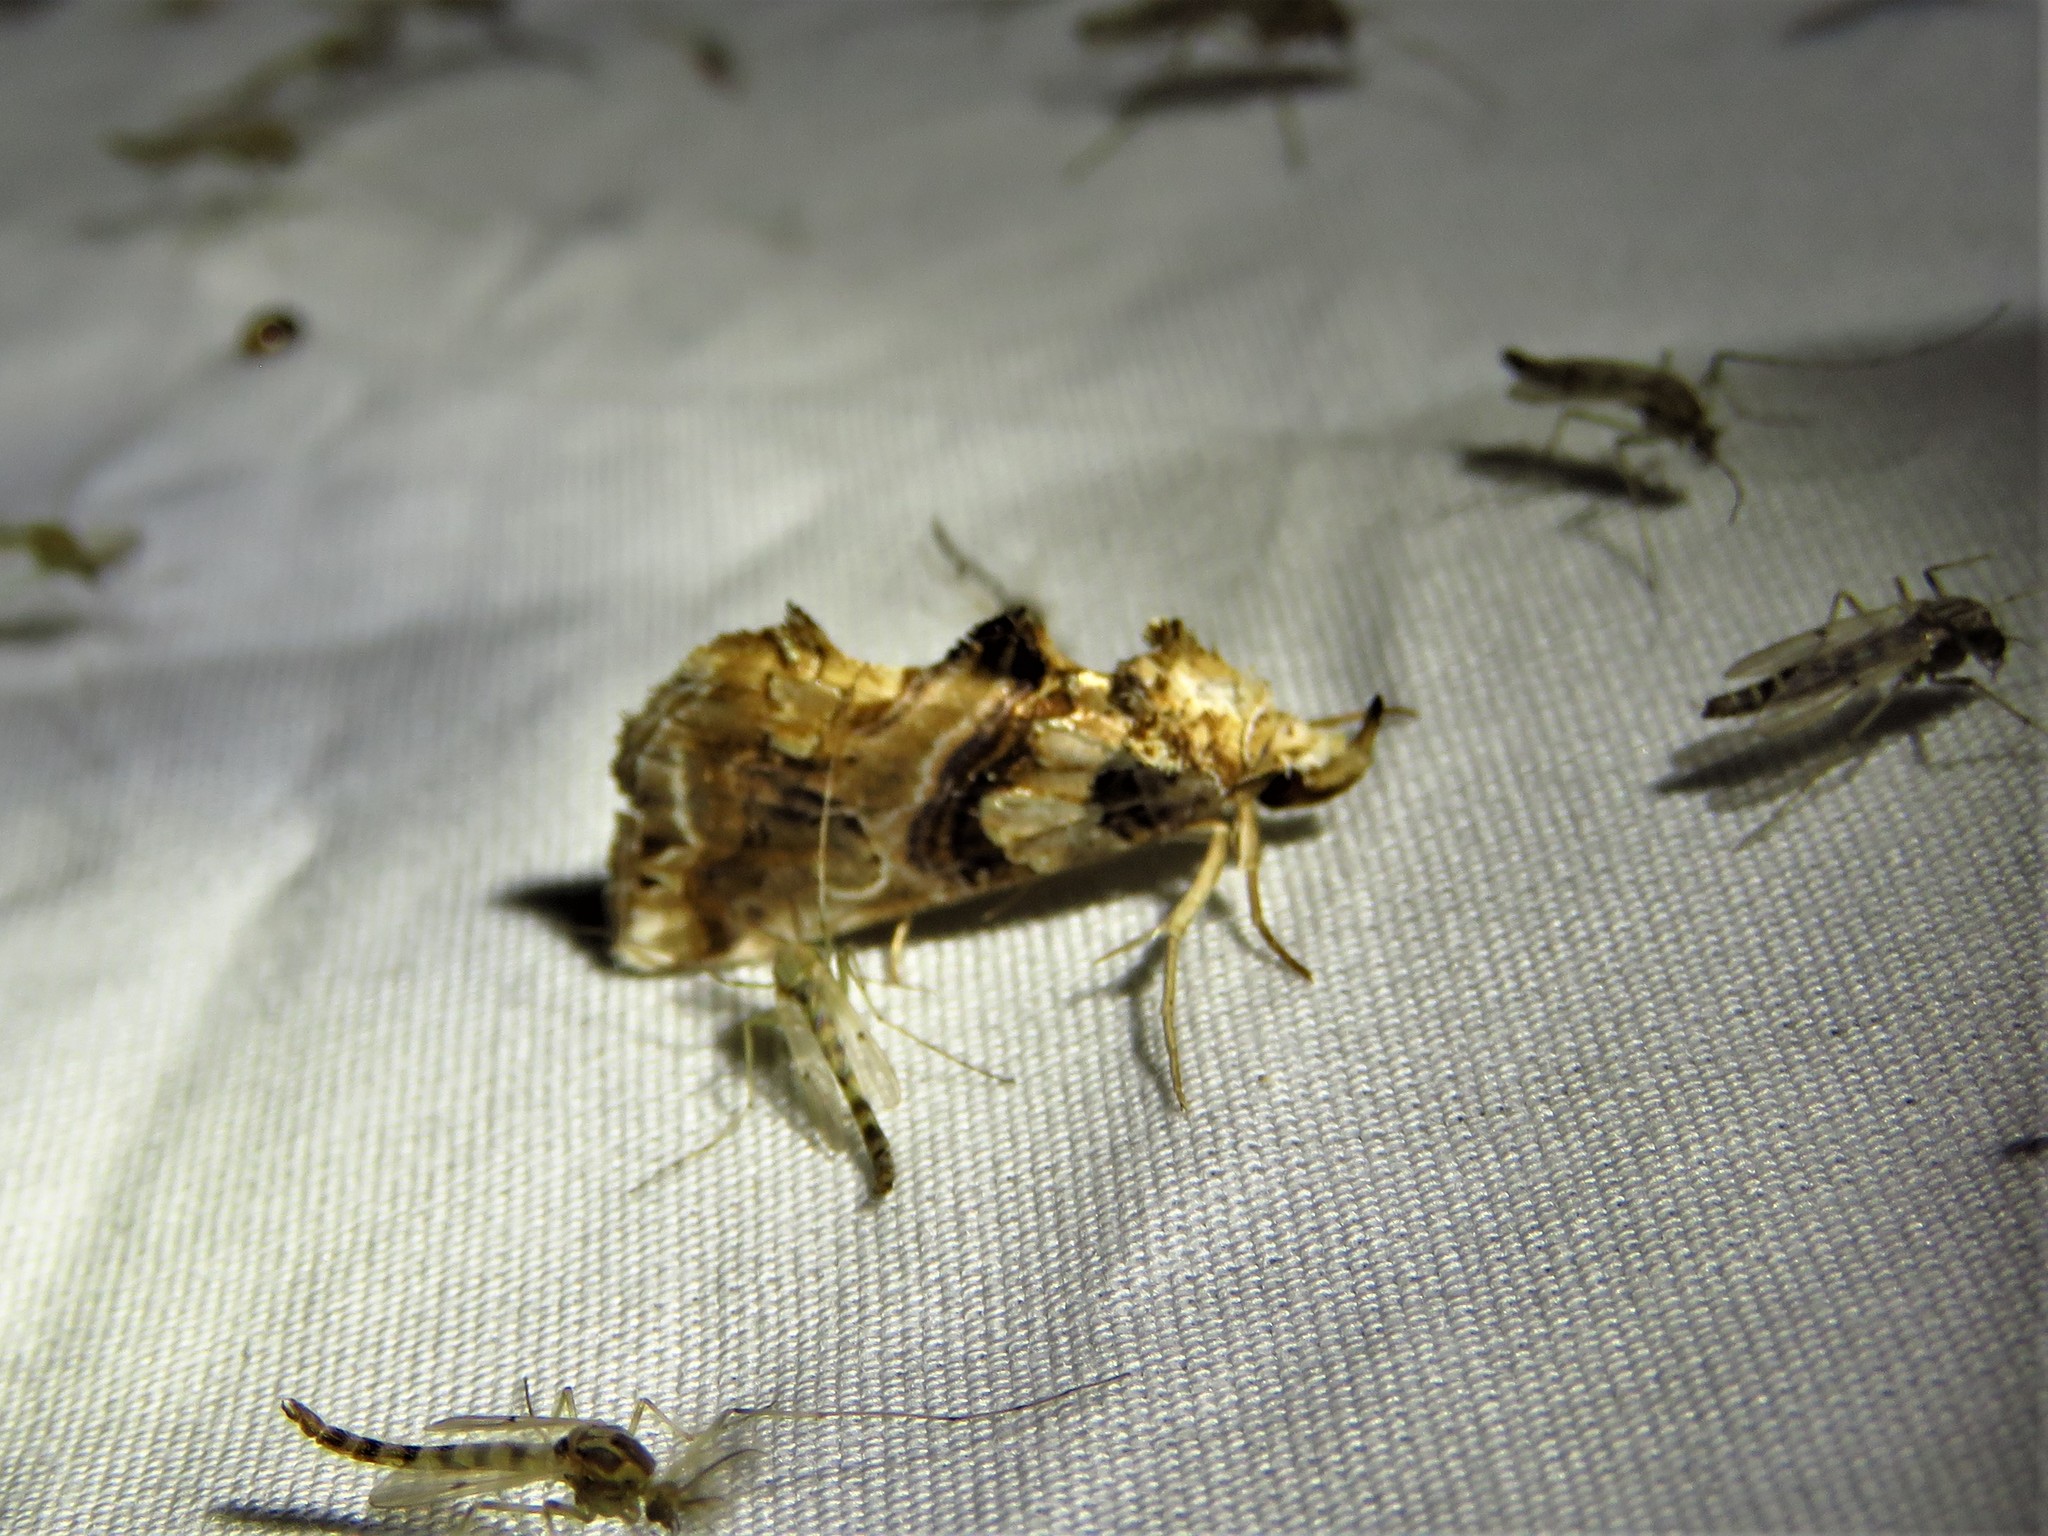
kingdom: Animalia
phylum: Arthropoda
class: Insecta
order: Lepidoptera
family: Erebidae
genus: Plusiodonta
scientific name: Plusiodonta compressipalpis
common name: Moonseed moth
